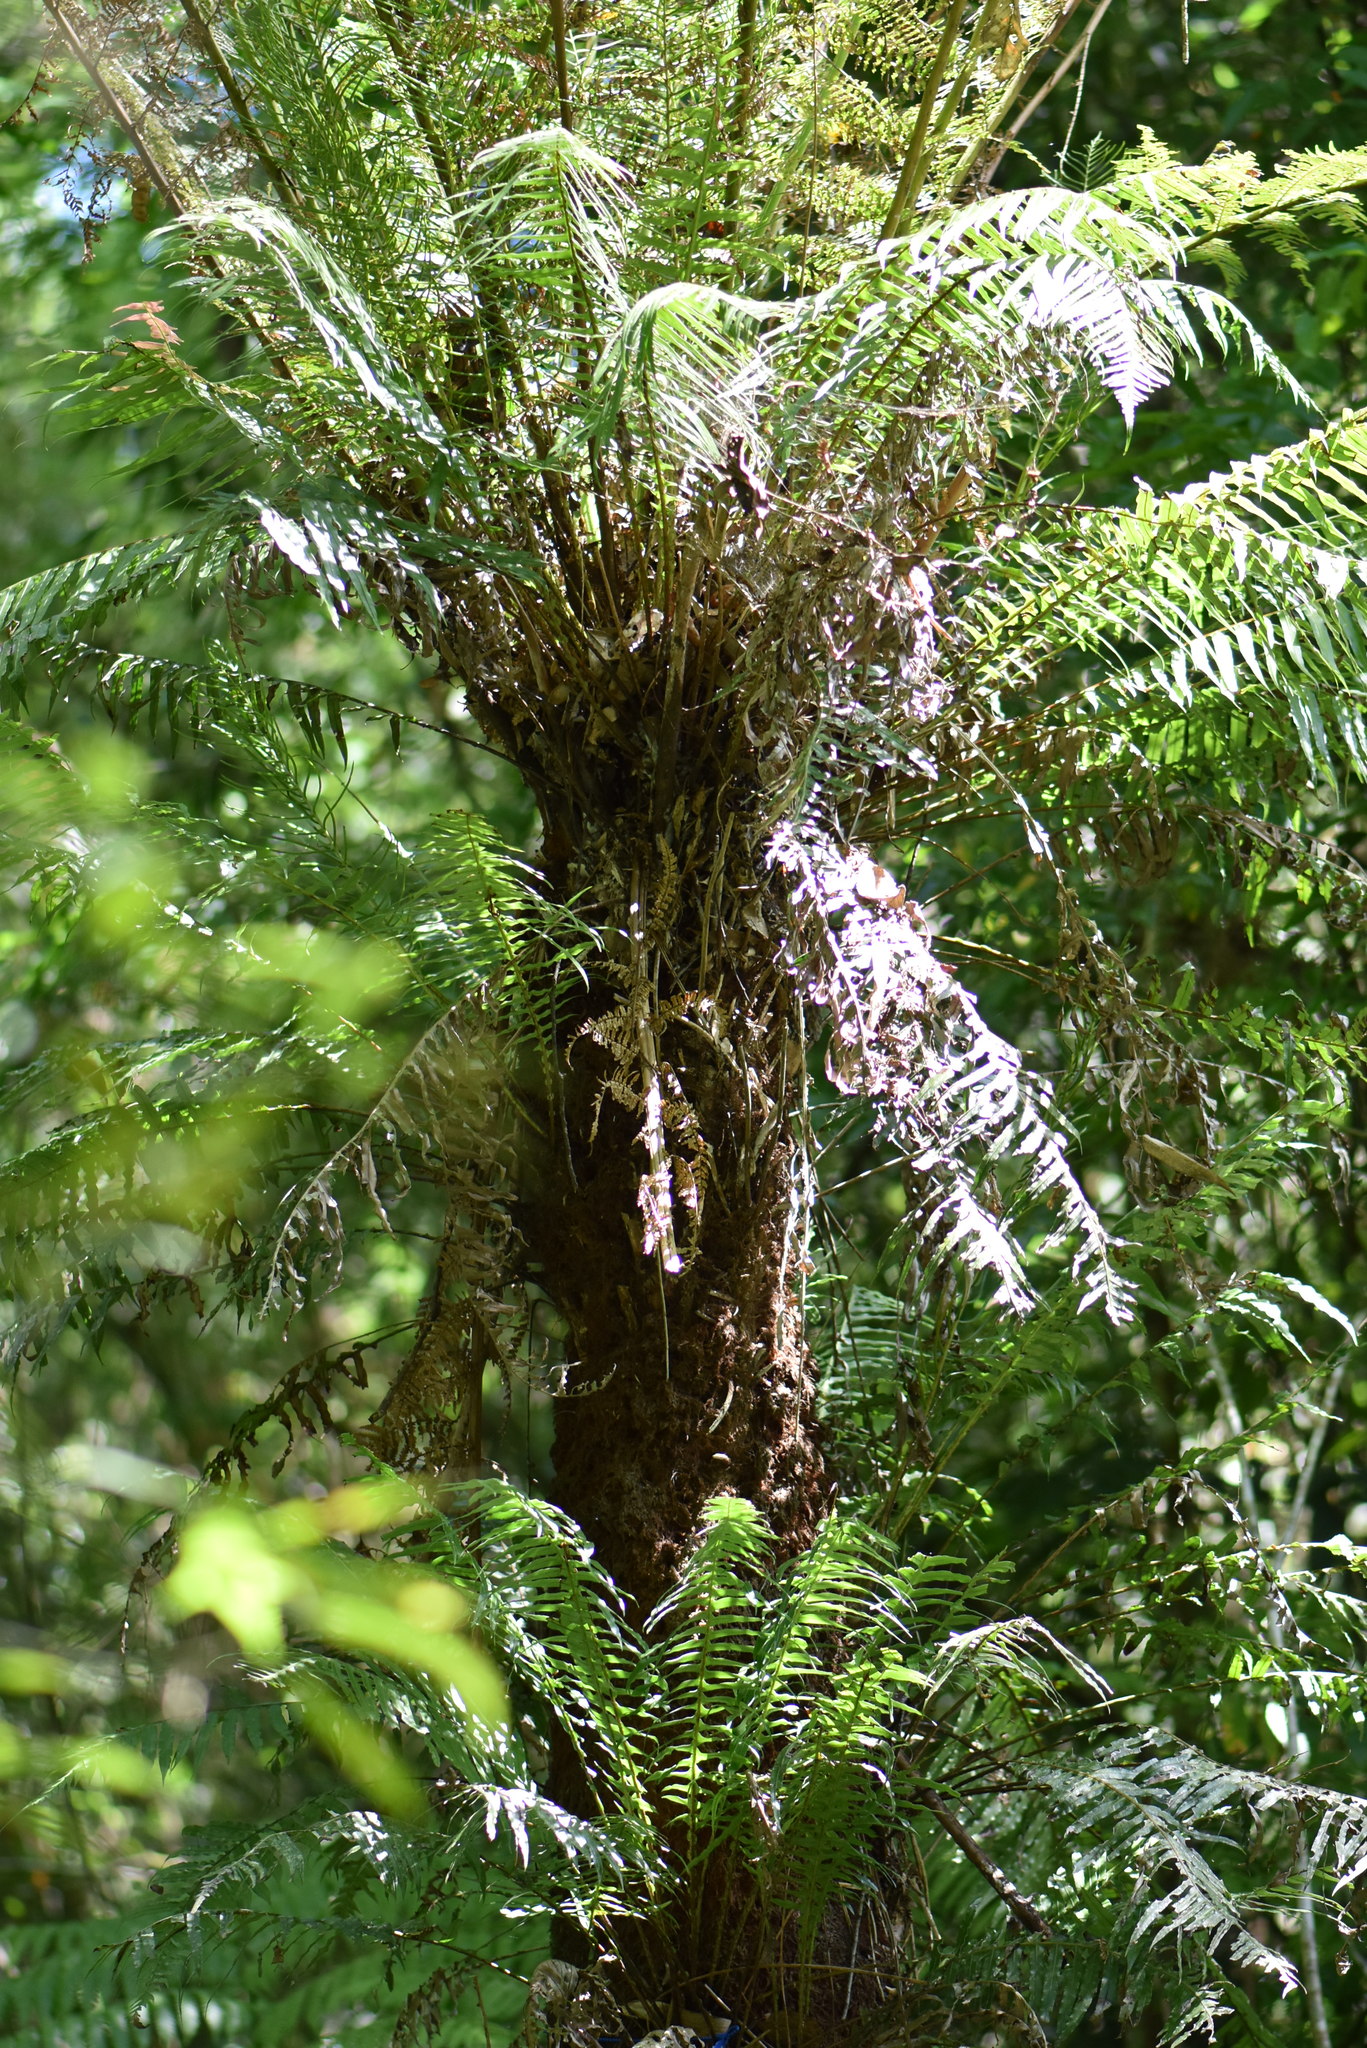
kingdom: Plantae
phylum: Tracheophyta
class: Polypodiopsida
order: Cyatheales
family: Dicksoniaceae
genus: Dicksonia
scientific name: Dicksonia sellowiana
